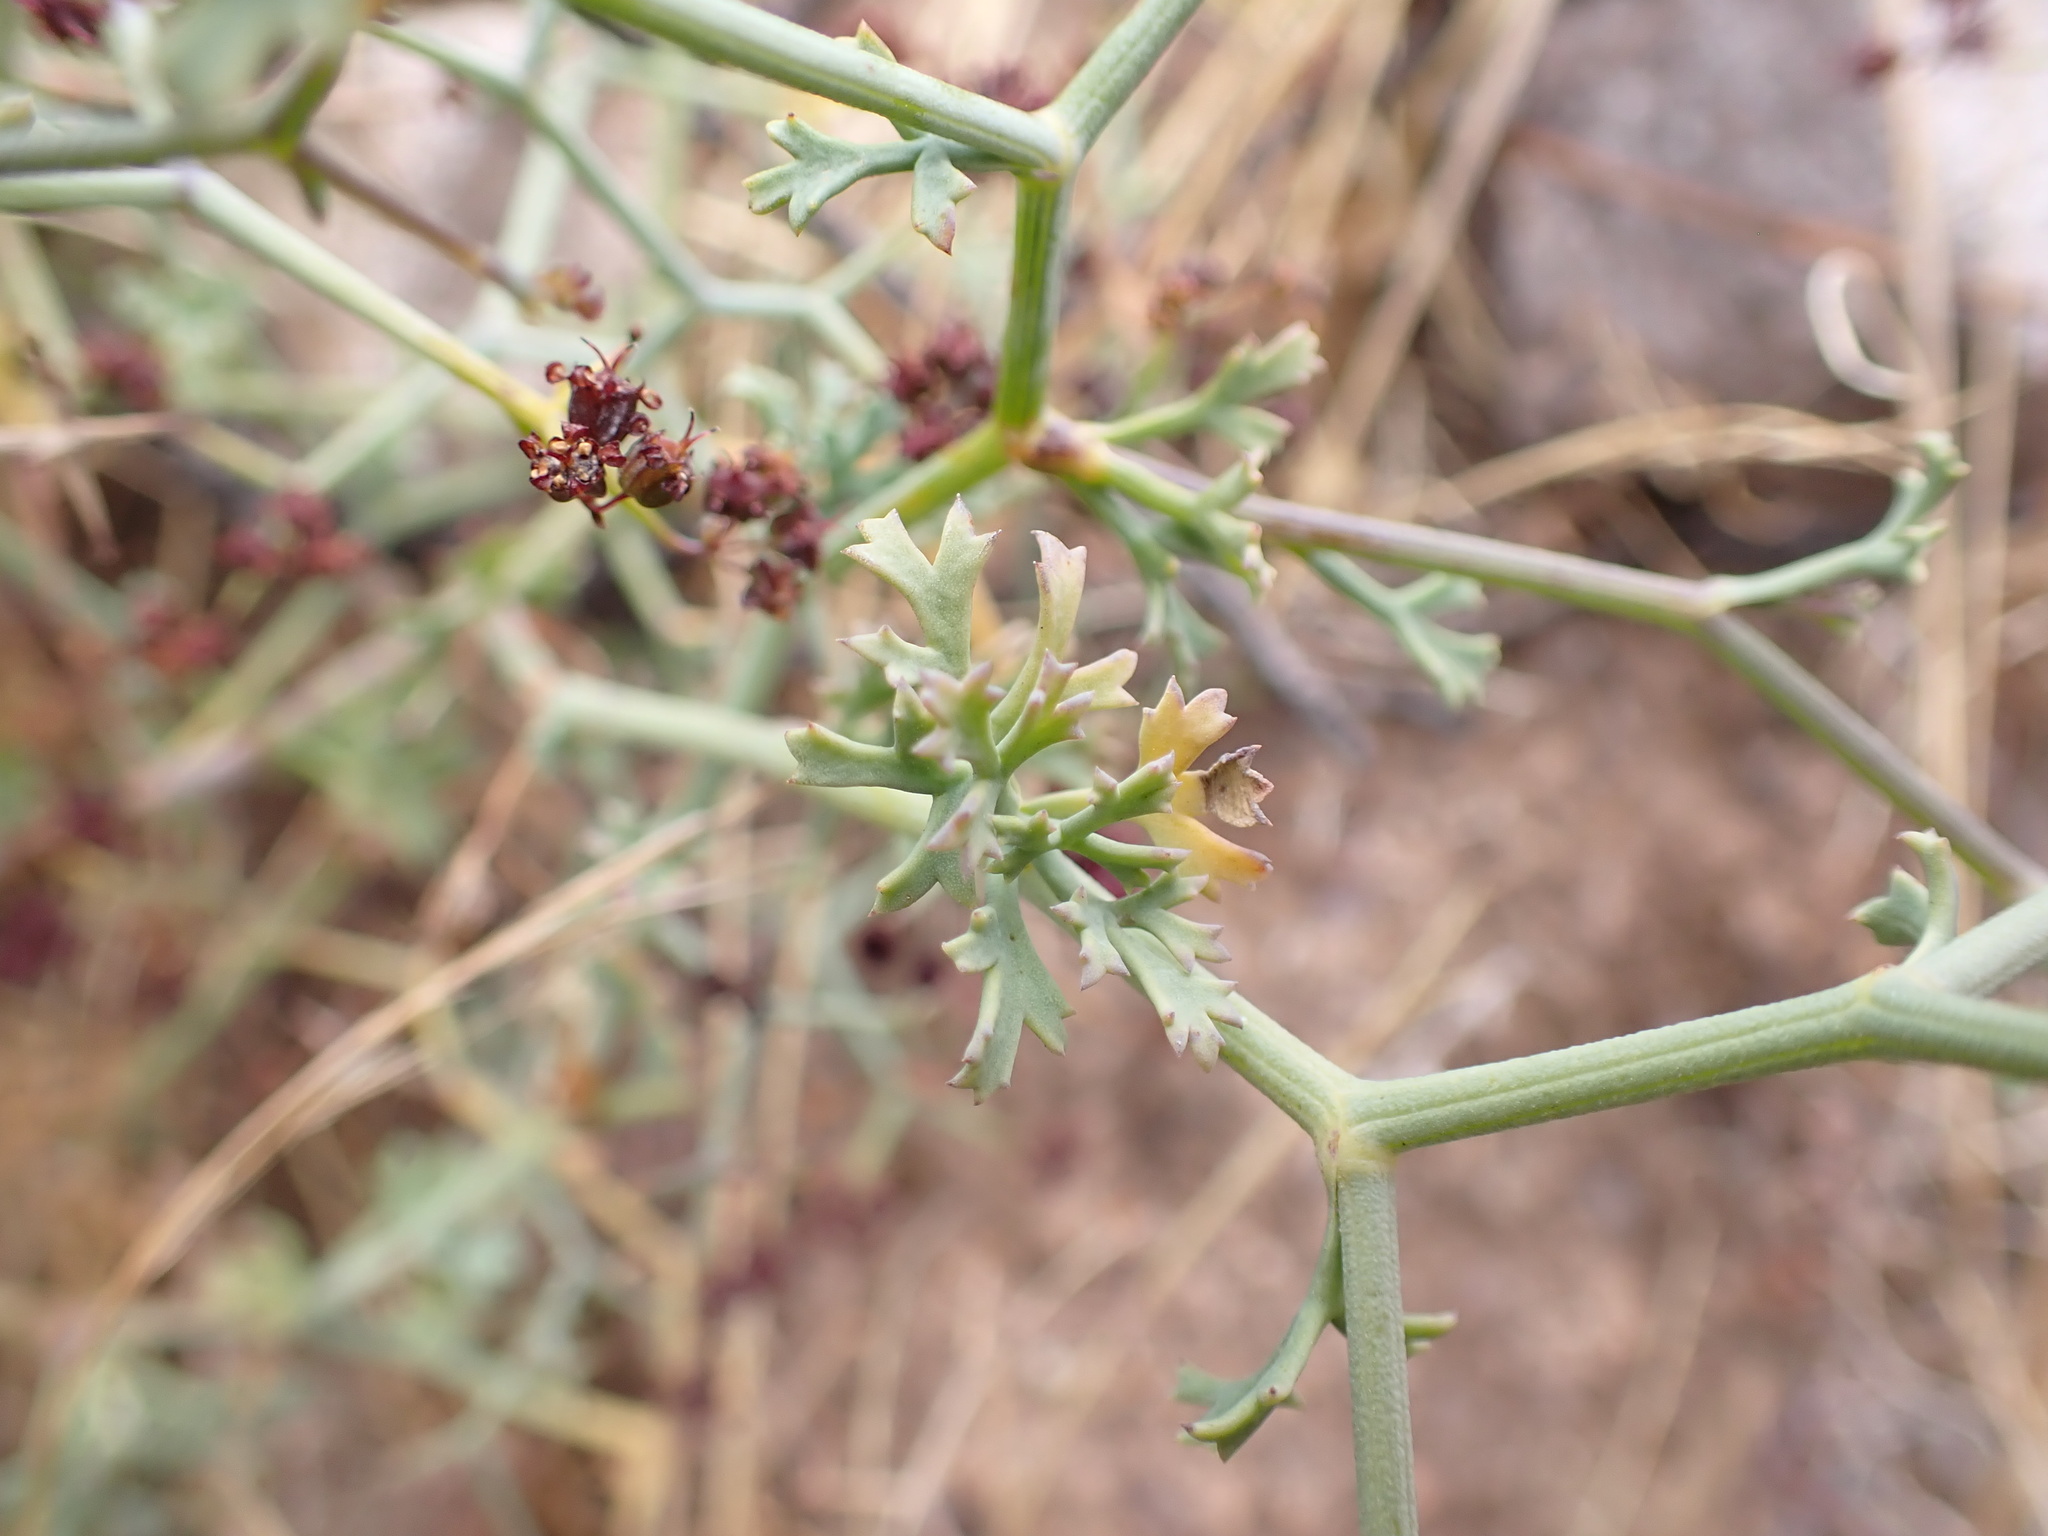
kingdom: Plantae
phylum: Tracheophyta
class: Magnoliopsida
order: Apiales
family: Apiaceae
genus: Eremocharis
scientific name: Eremocharis triradiata
